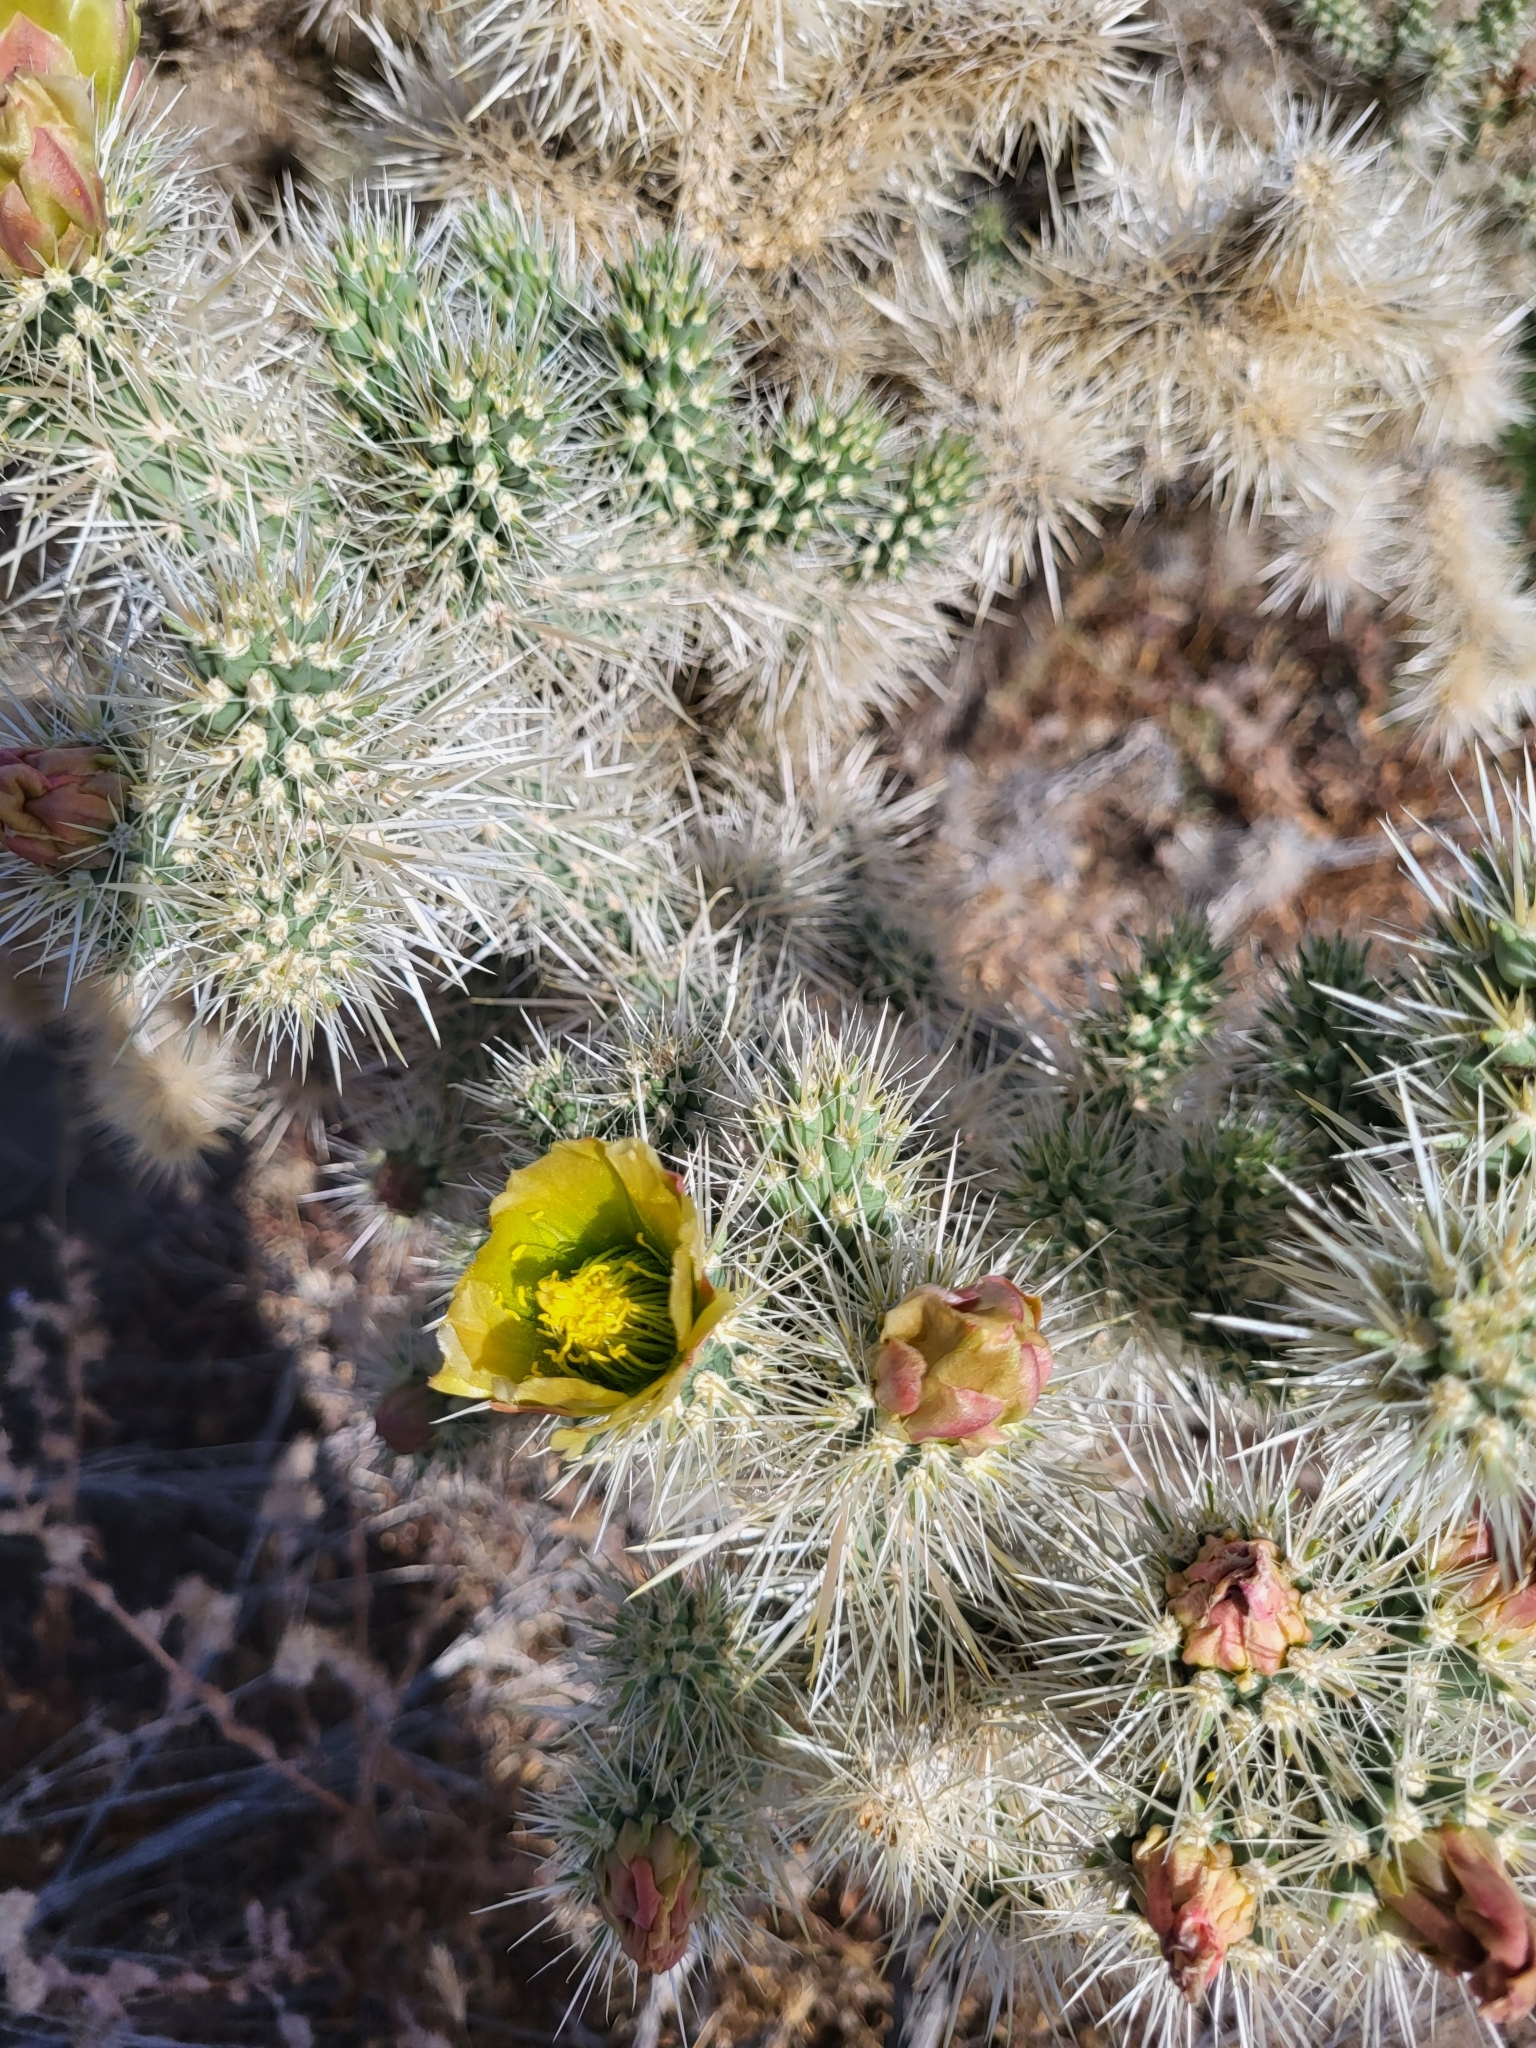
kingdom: Plantae
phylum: Tracheophyta
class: Magnoliopsida
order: Caryophyllales
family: Cactaceae
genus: Cylindropuntia
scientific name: Cylindropuntia echinocarpa
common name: Ground cholla
